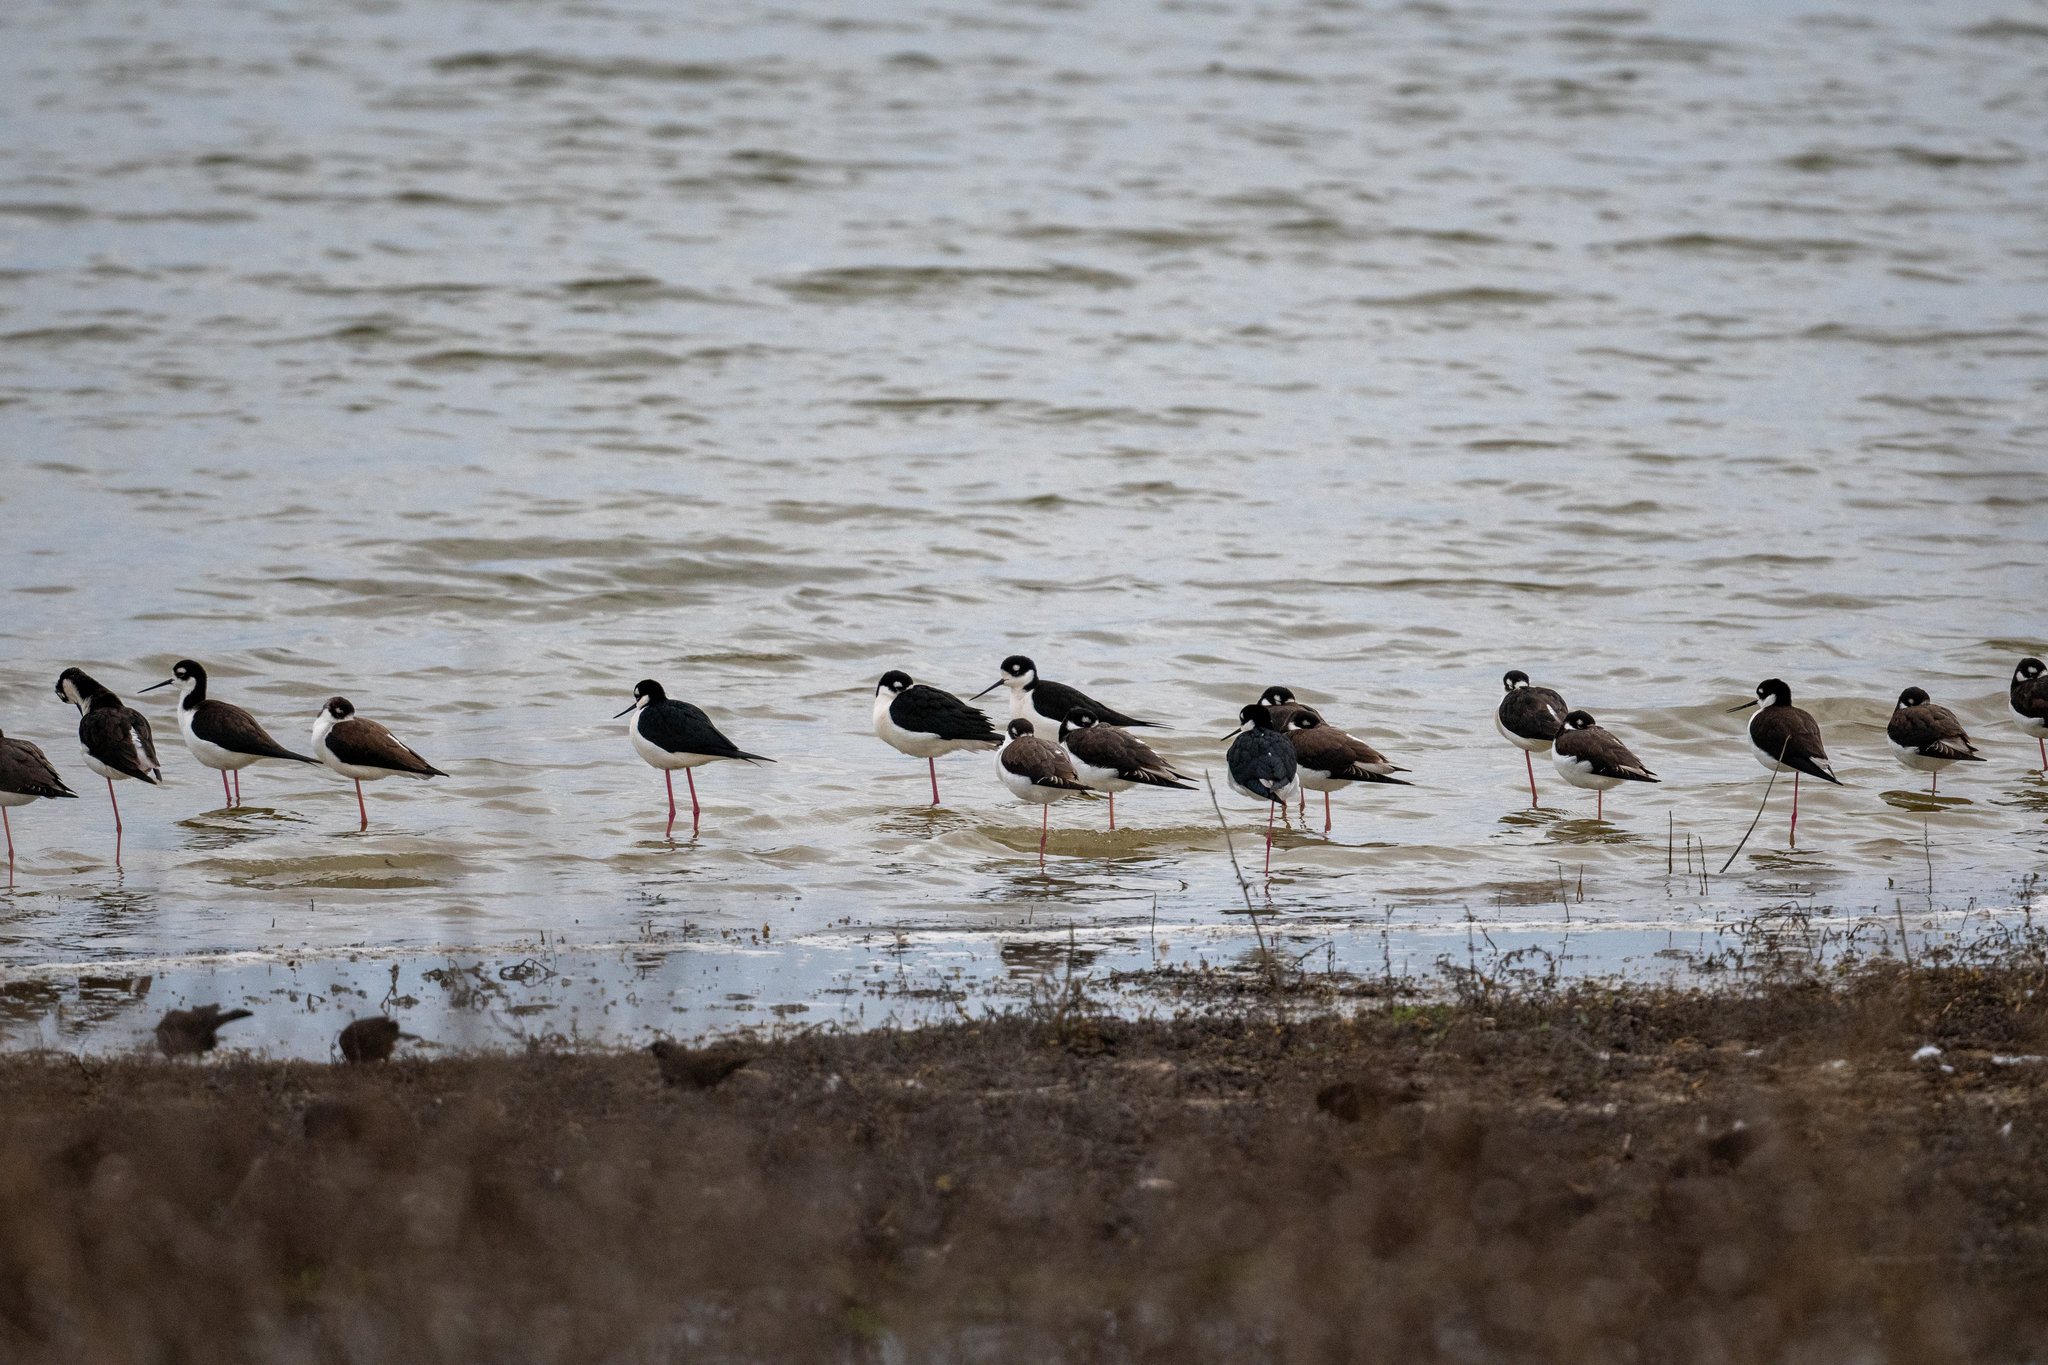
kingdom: Animalia
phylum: Chordata
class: Aves
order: Charadriiformes
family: Recurvirostridae
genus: Himantopus
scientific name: Himantopus mexicanus
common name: Black-necked stilt
